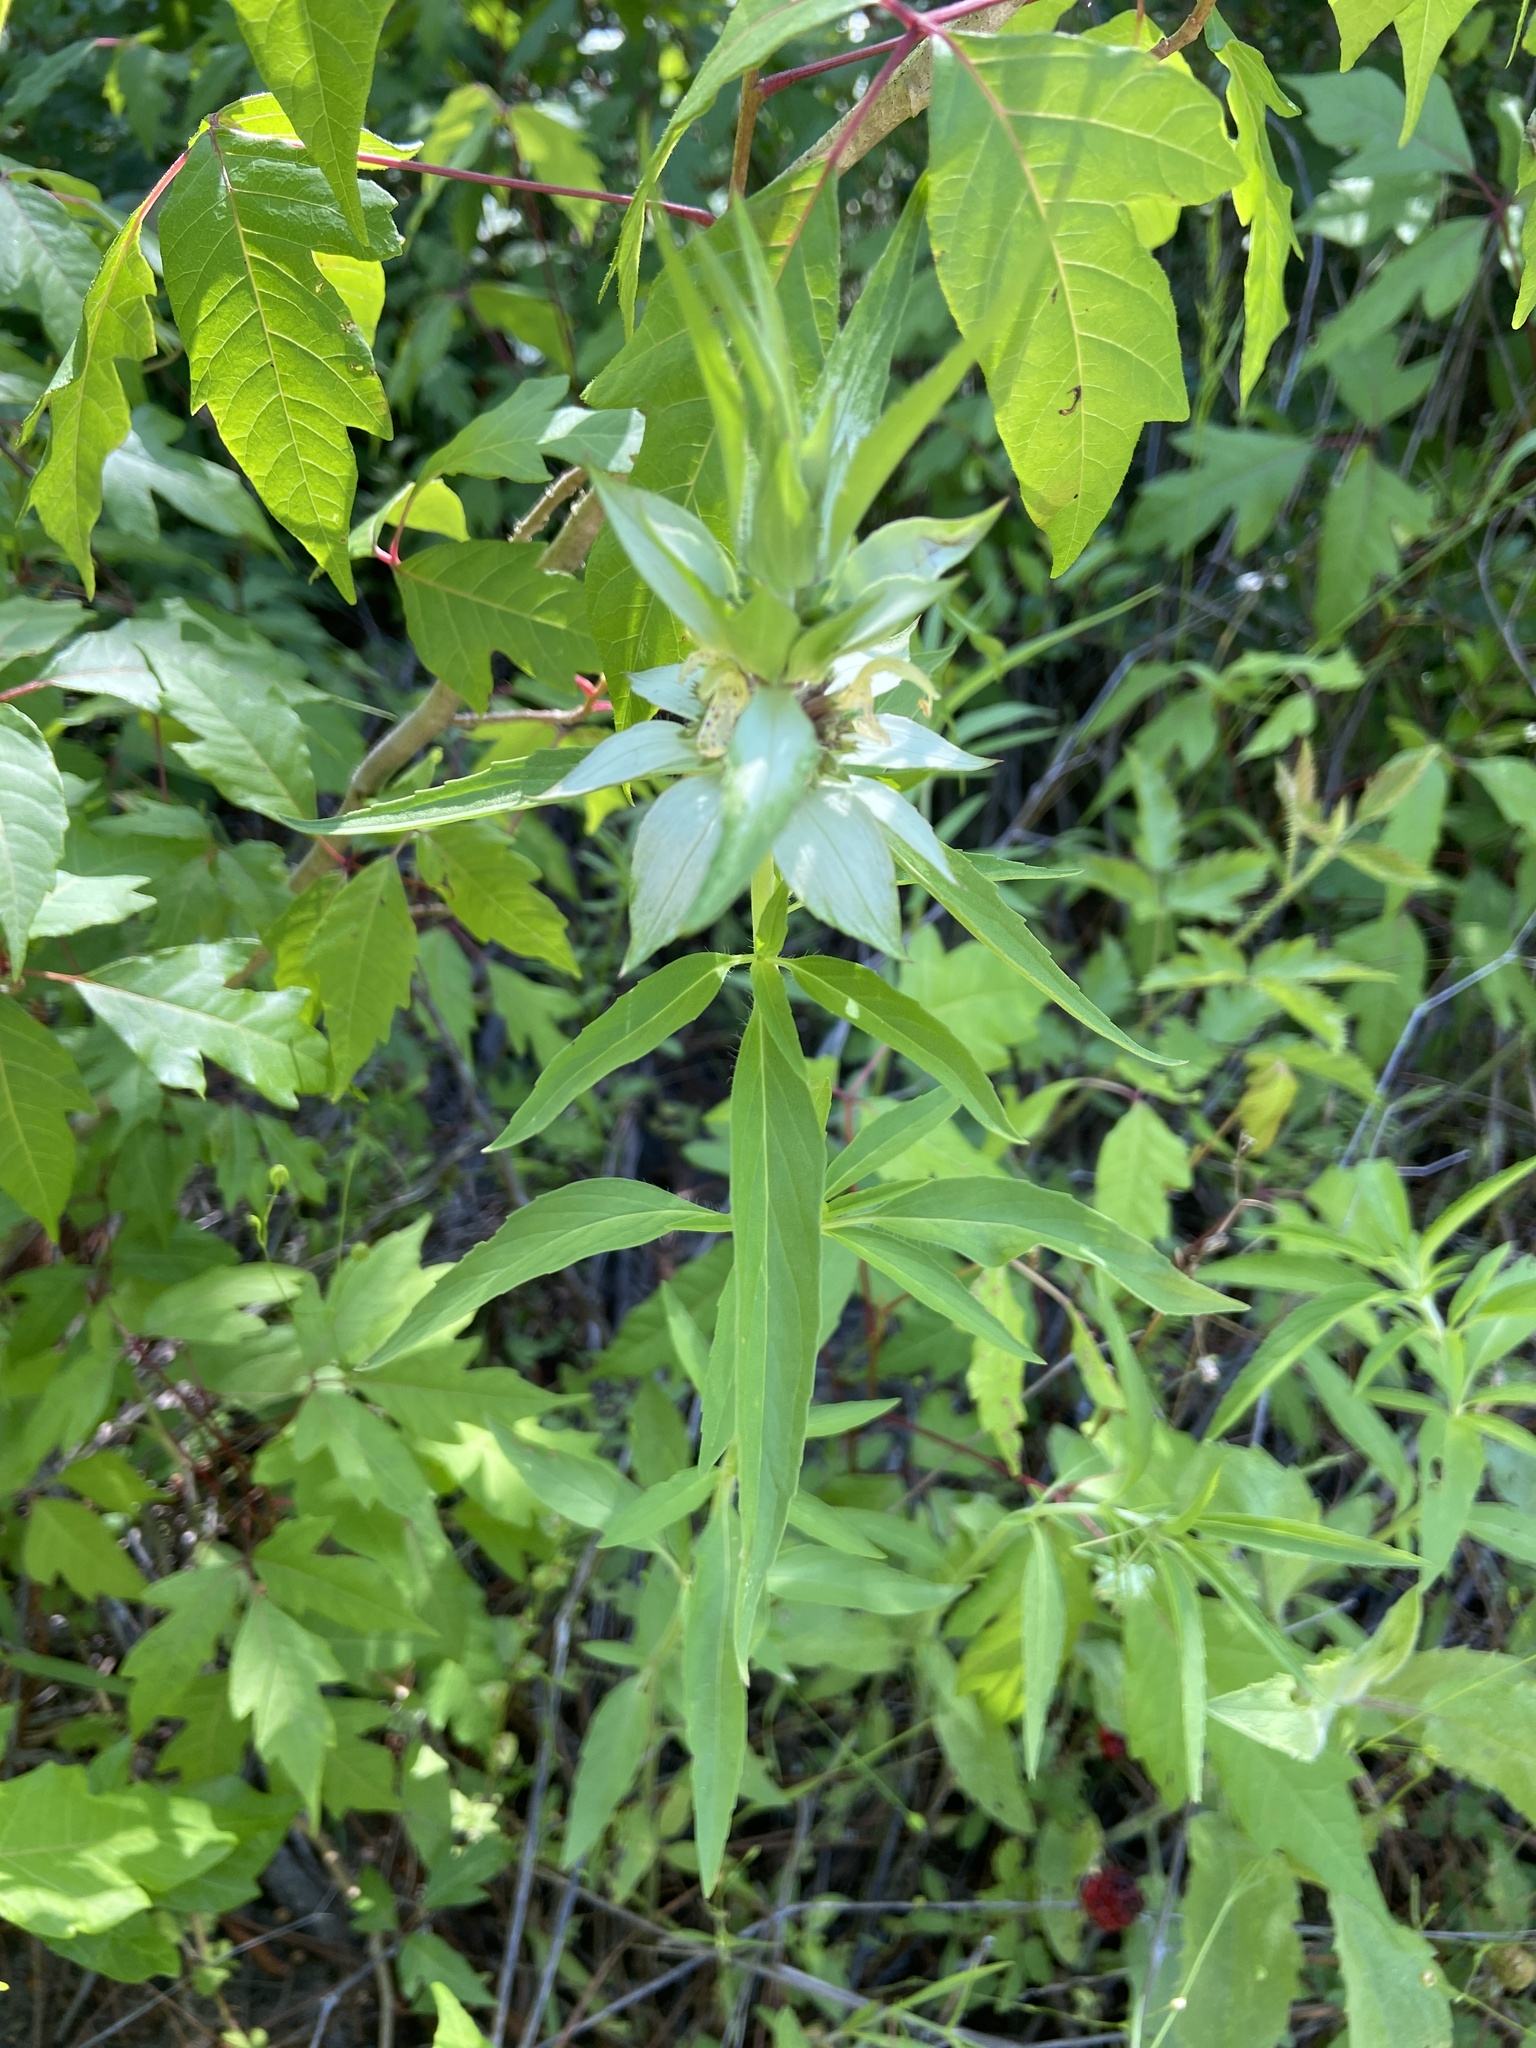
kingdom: Plantae
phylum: Tracheophyta
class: Magnoliopsida
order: Lamiales
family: Lamiaceae
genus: Monarda
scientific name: Monarda punctata
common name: Dotted monarda
